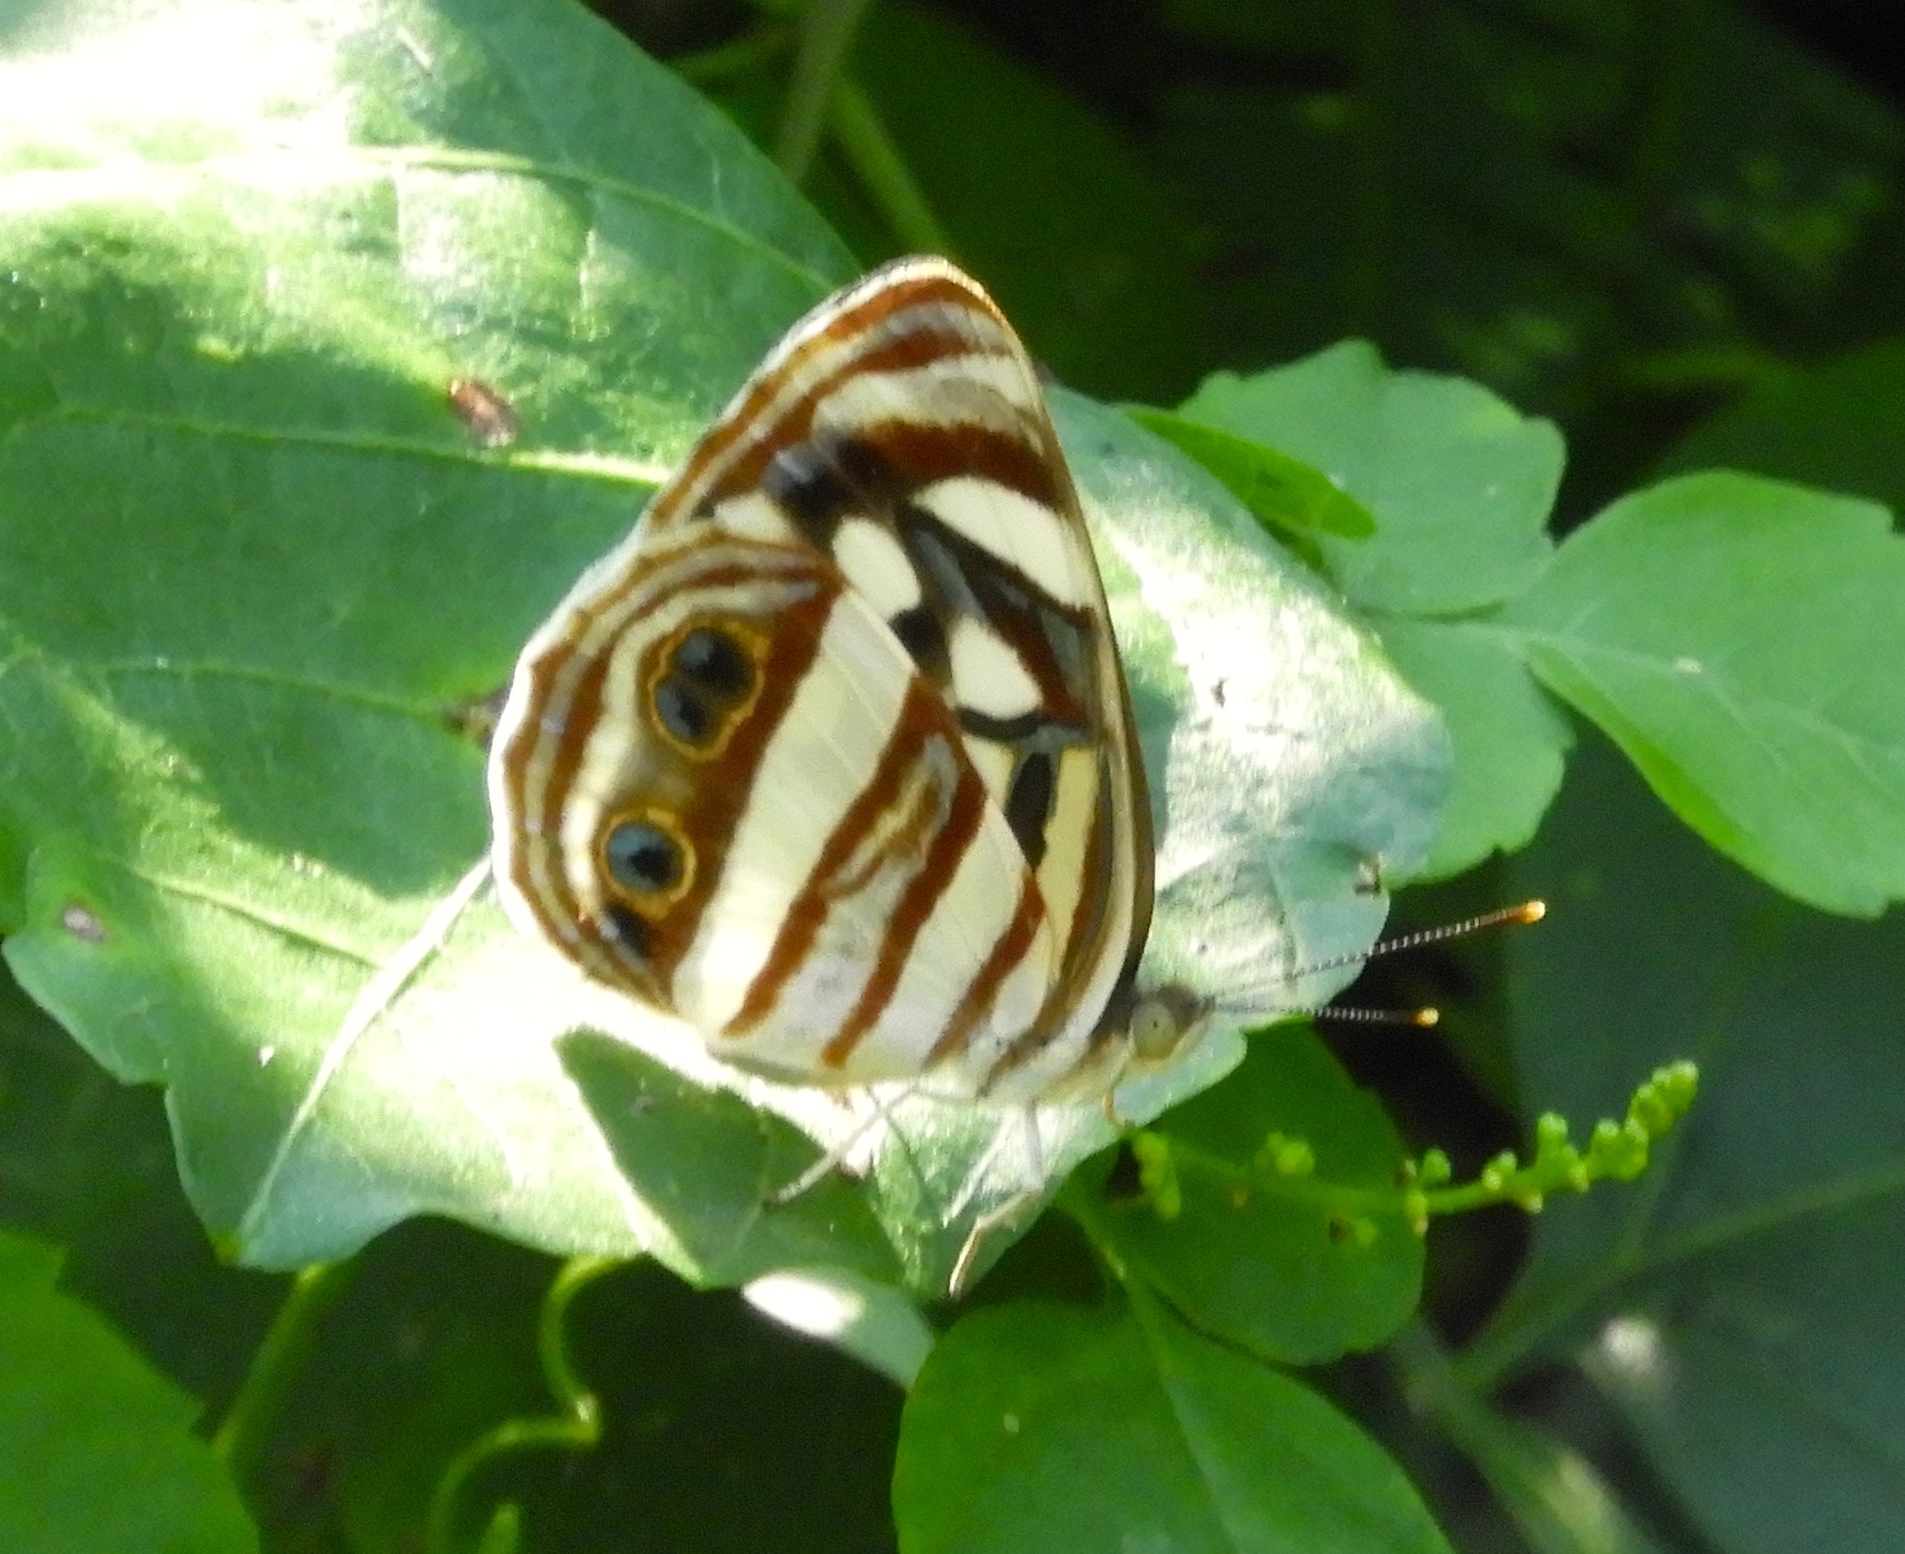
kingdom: Animalia
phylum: Arthropoda
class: Insecta
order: Lepidoptera
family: Nymphalidae
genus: Dynamine
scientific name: Dynamine mylitta
